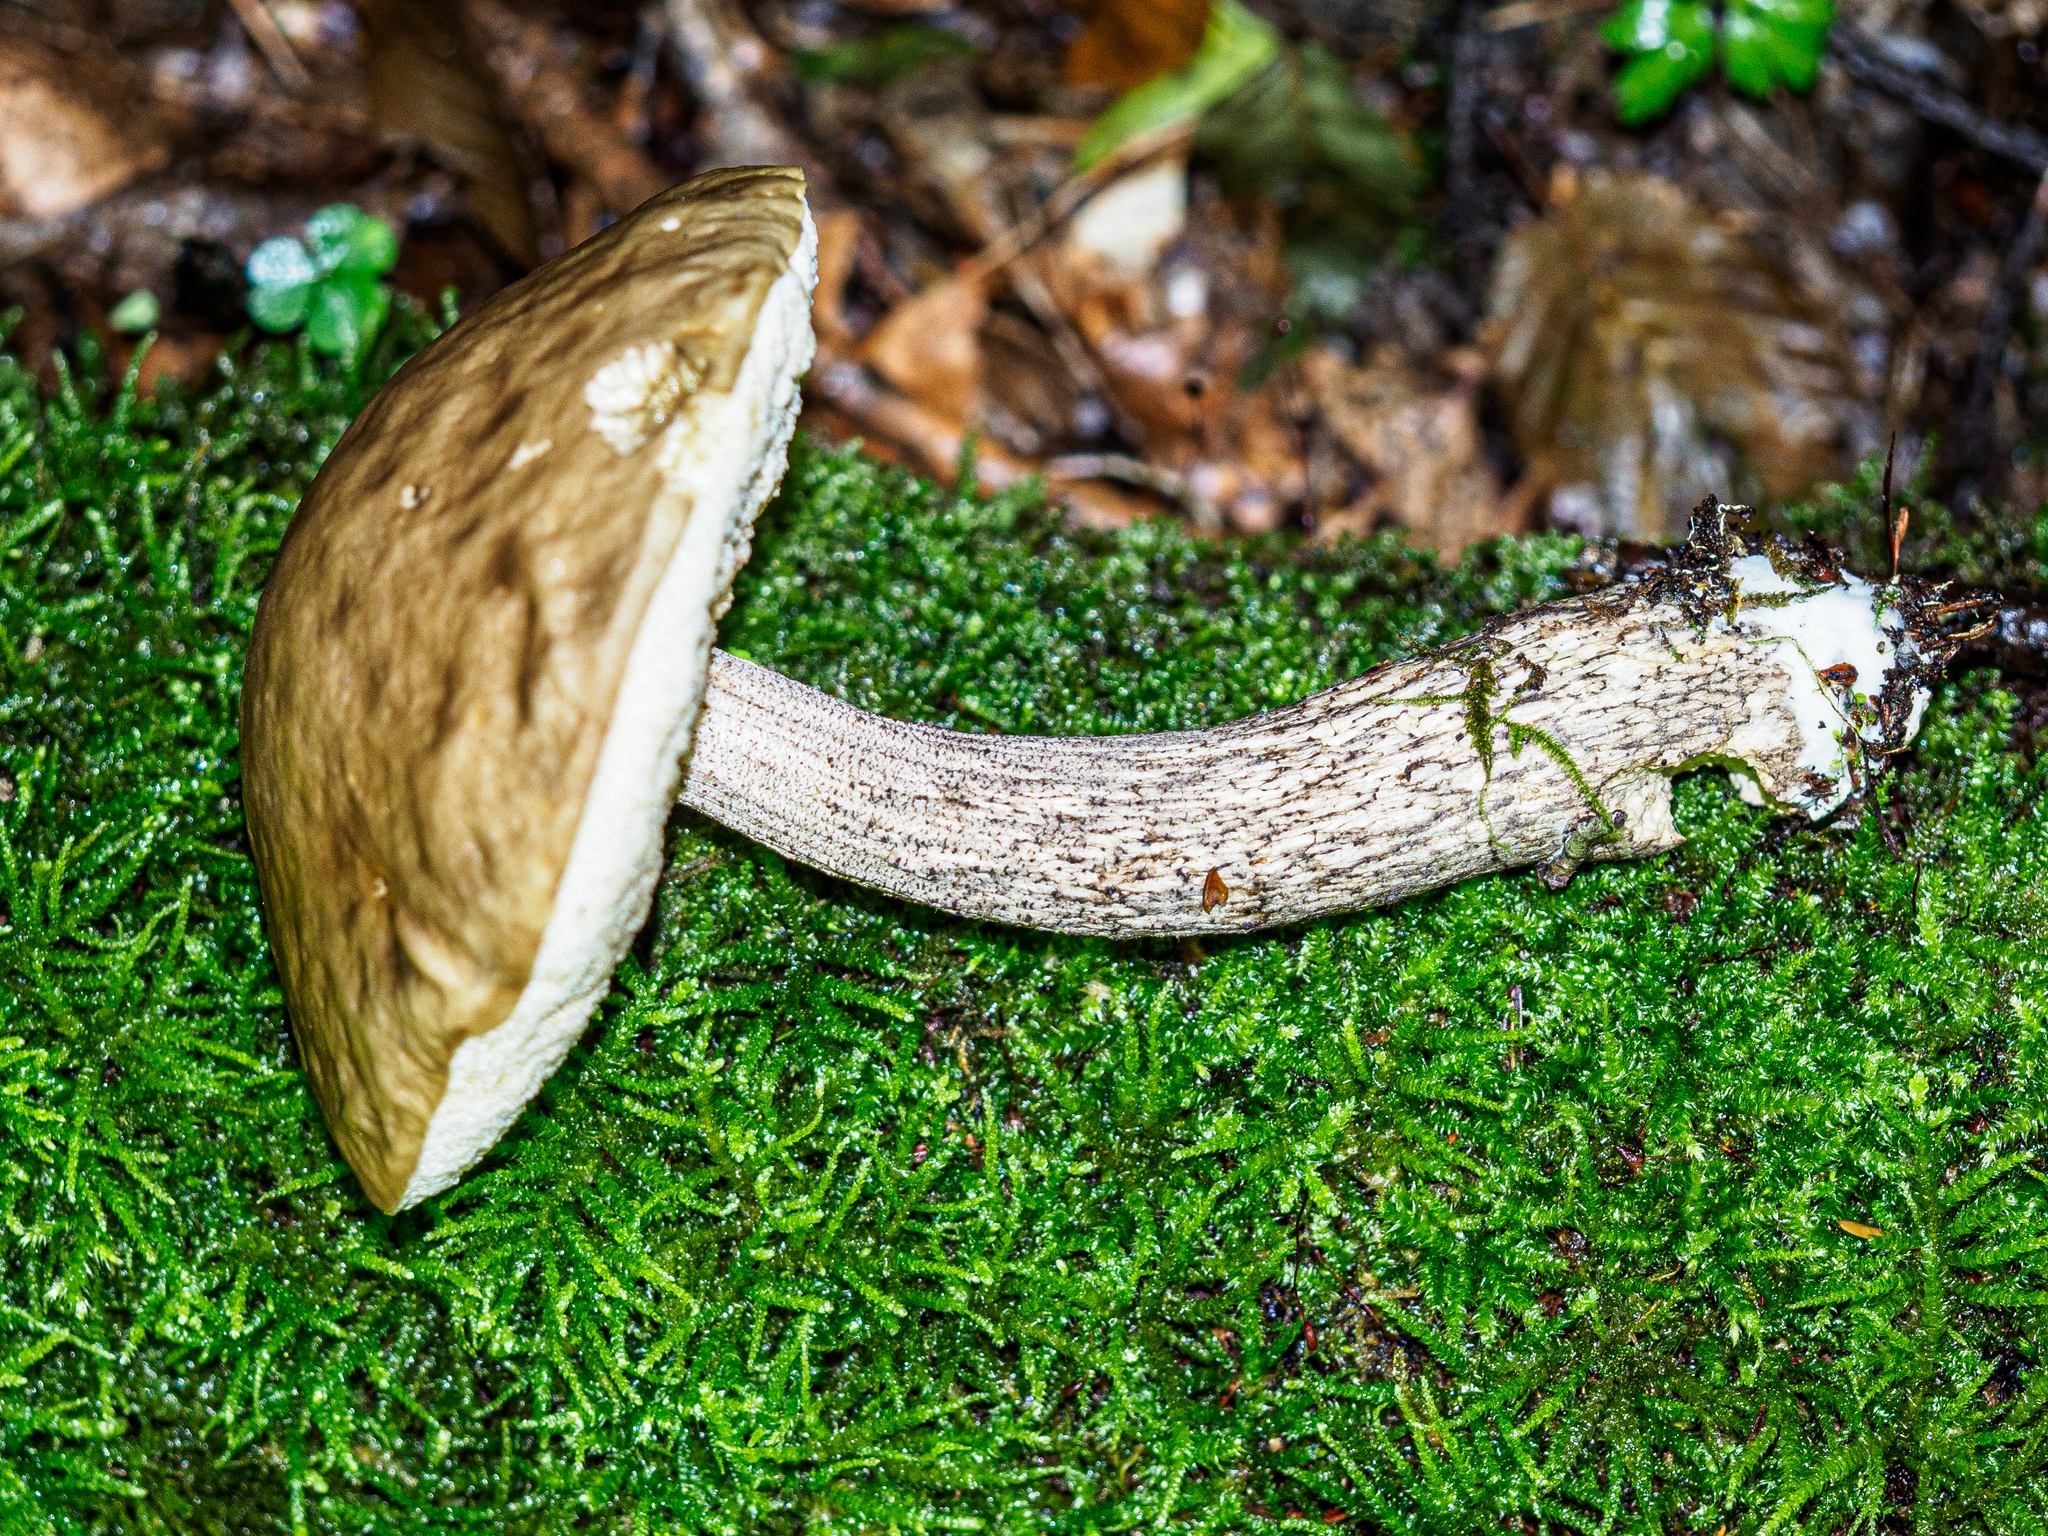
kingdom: Fungi
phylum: Basidiomycota
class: Agaricomycetes
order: Boletales
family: Boletaceae
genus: Leccinellum
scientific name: Leccinellum pseudoscabrum
